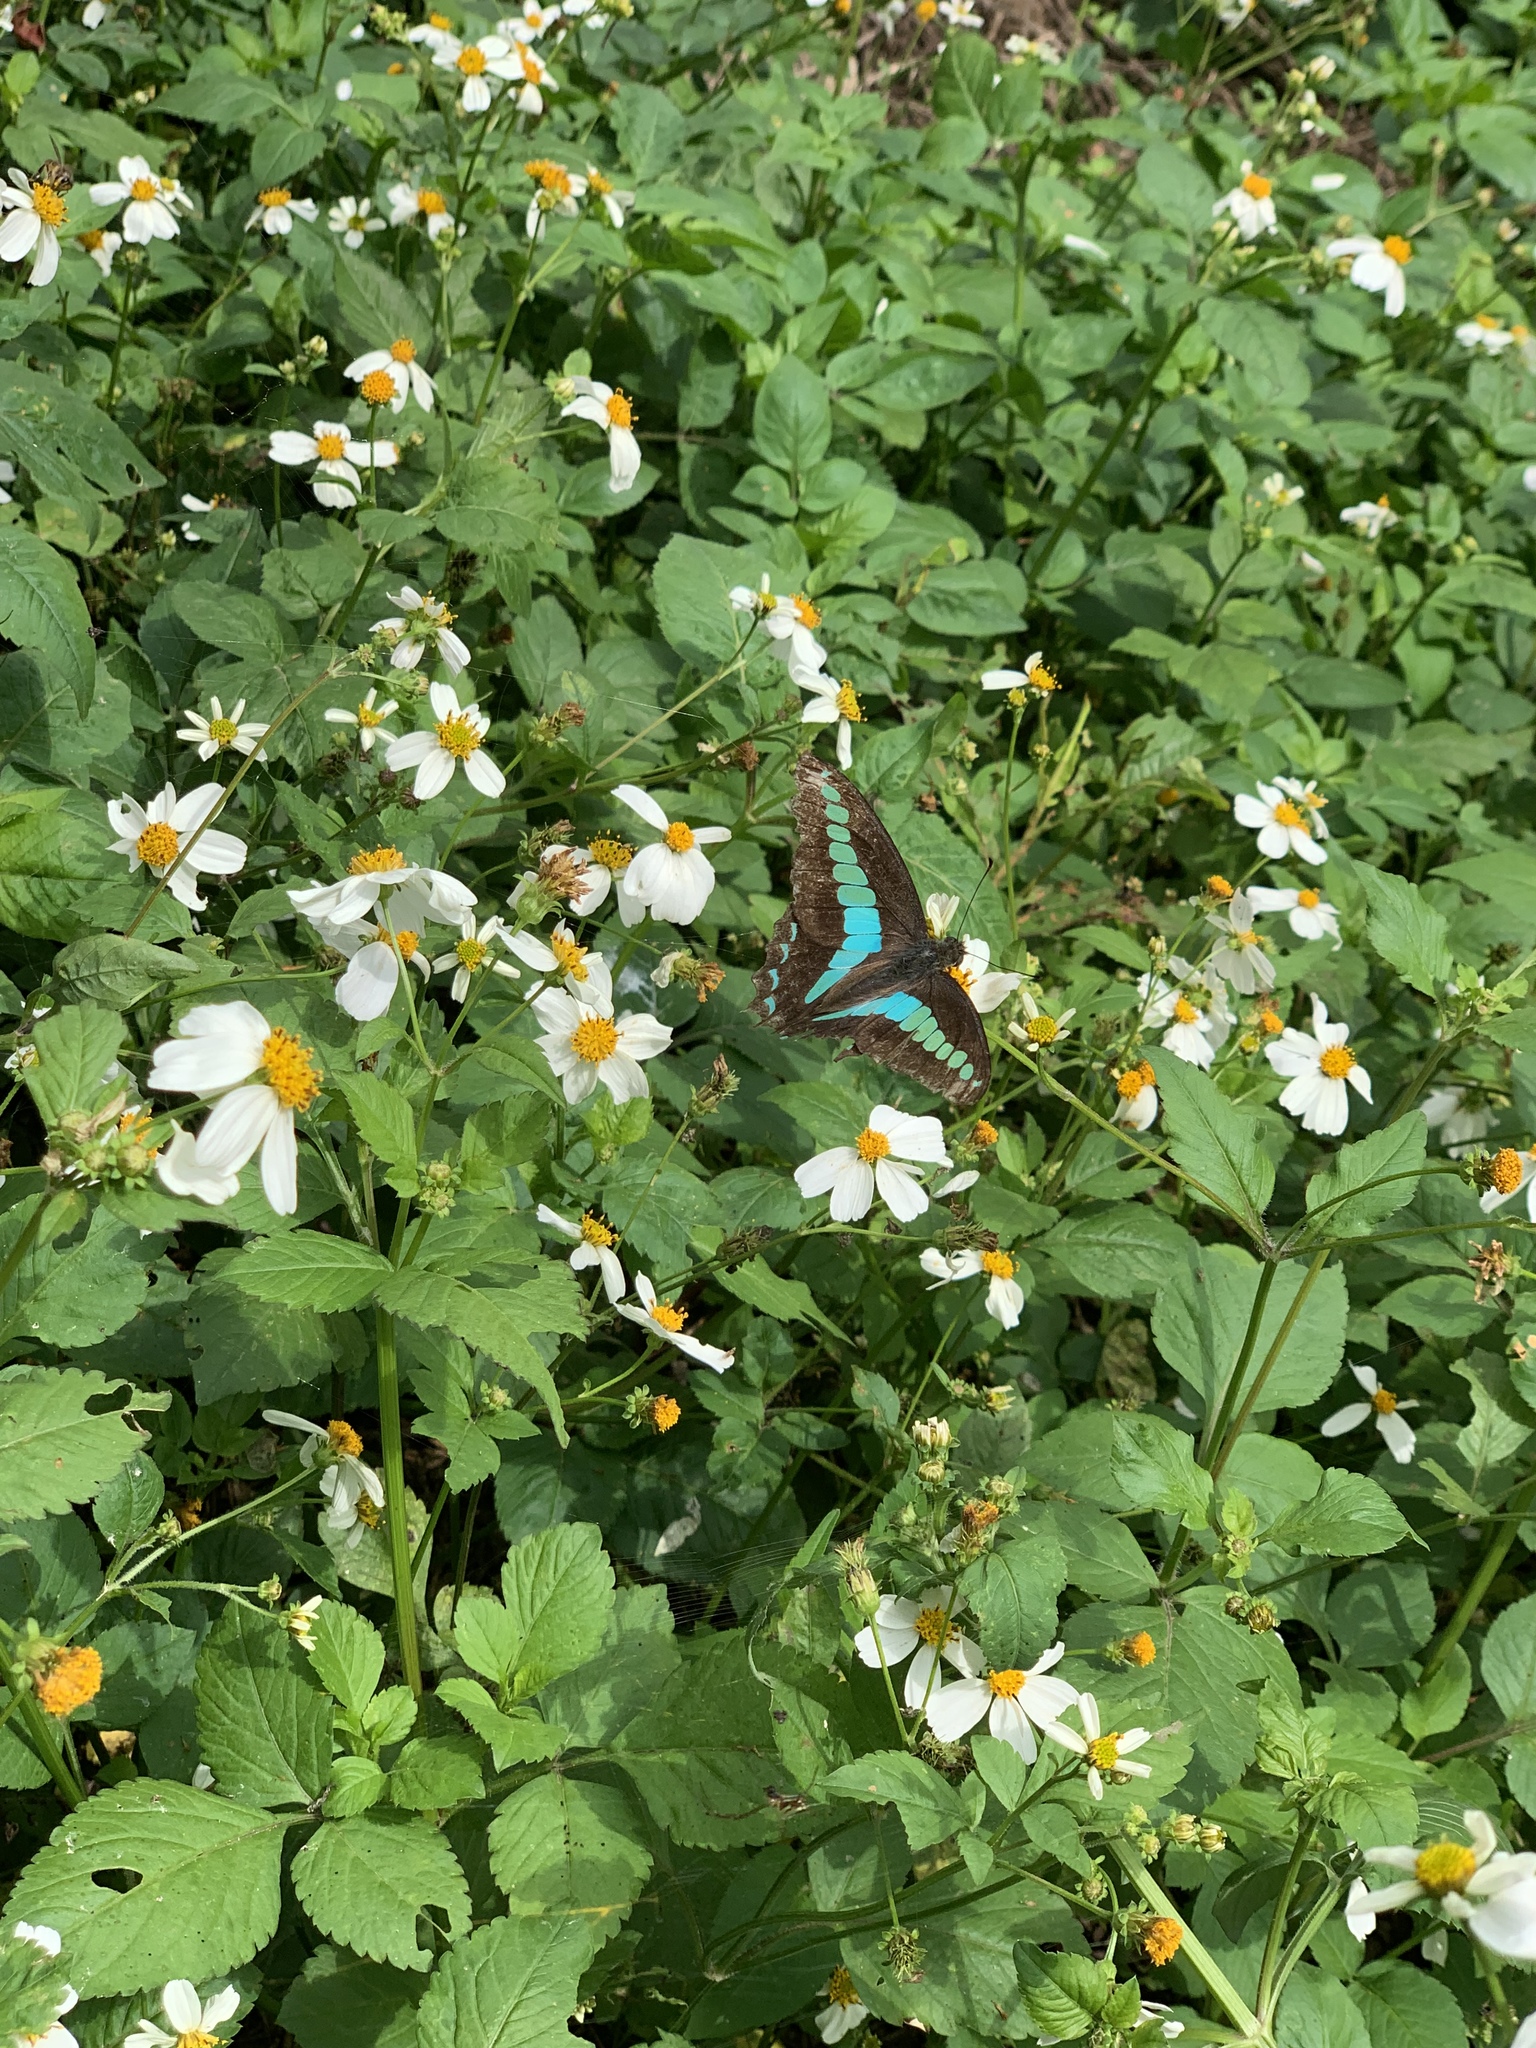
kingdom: Fungi
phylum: Ascomycota
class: Sordariomycetes
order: Microascales
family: Microascaceae
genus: Graphium
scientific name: Graphium sarpedon
